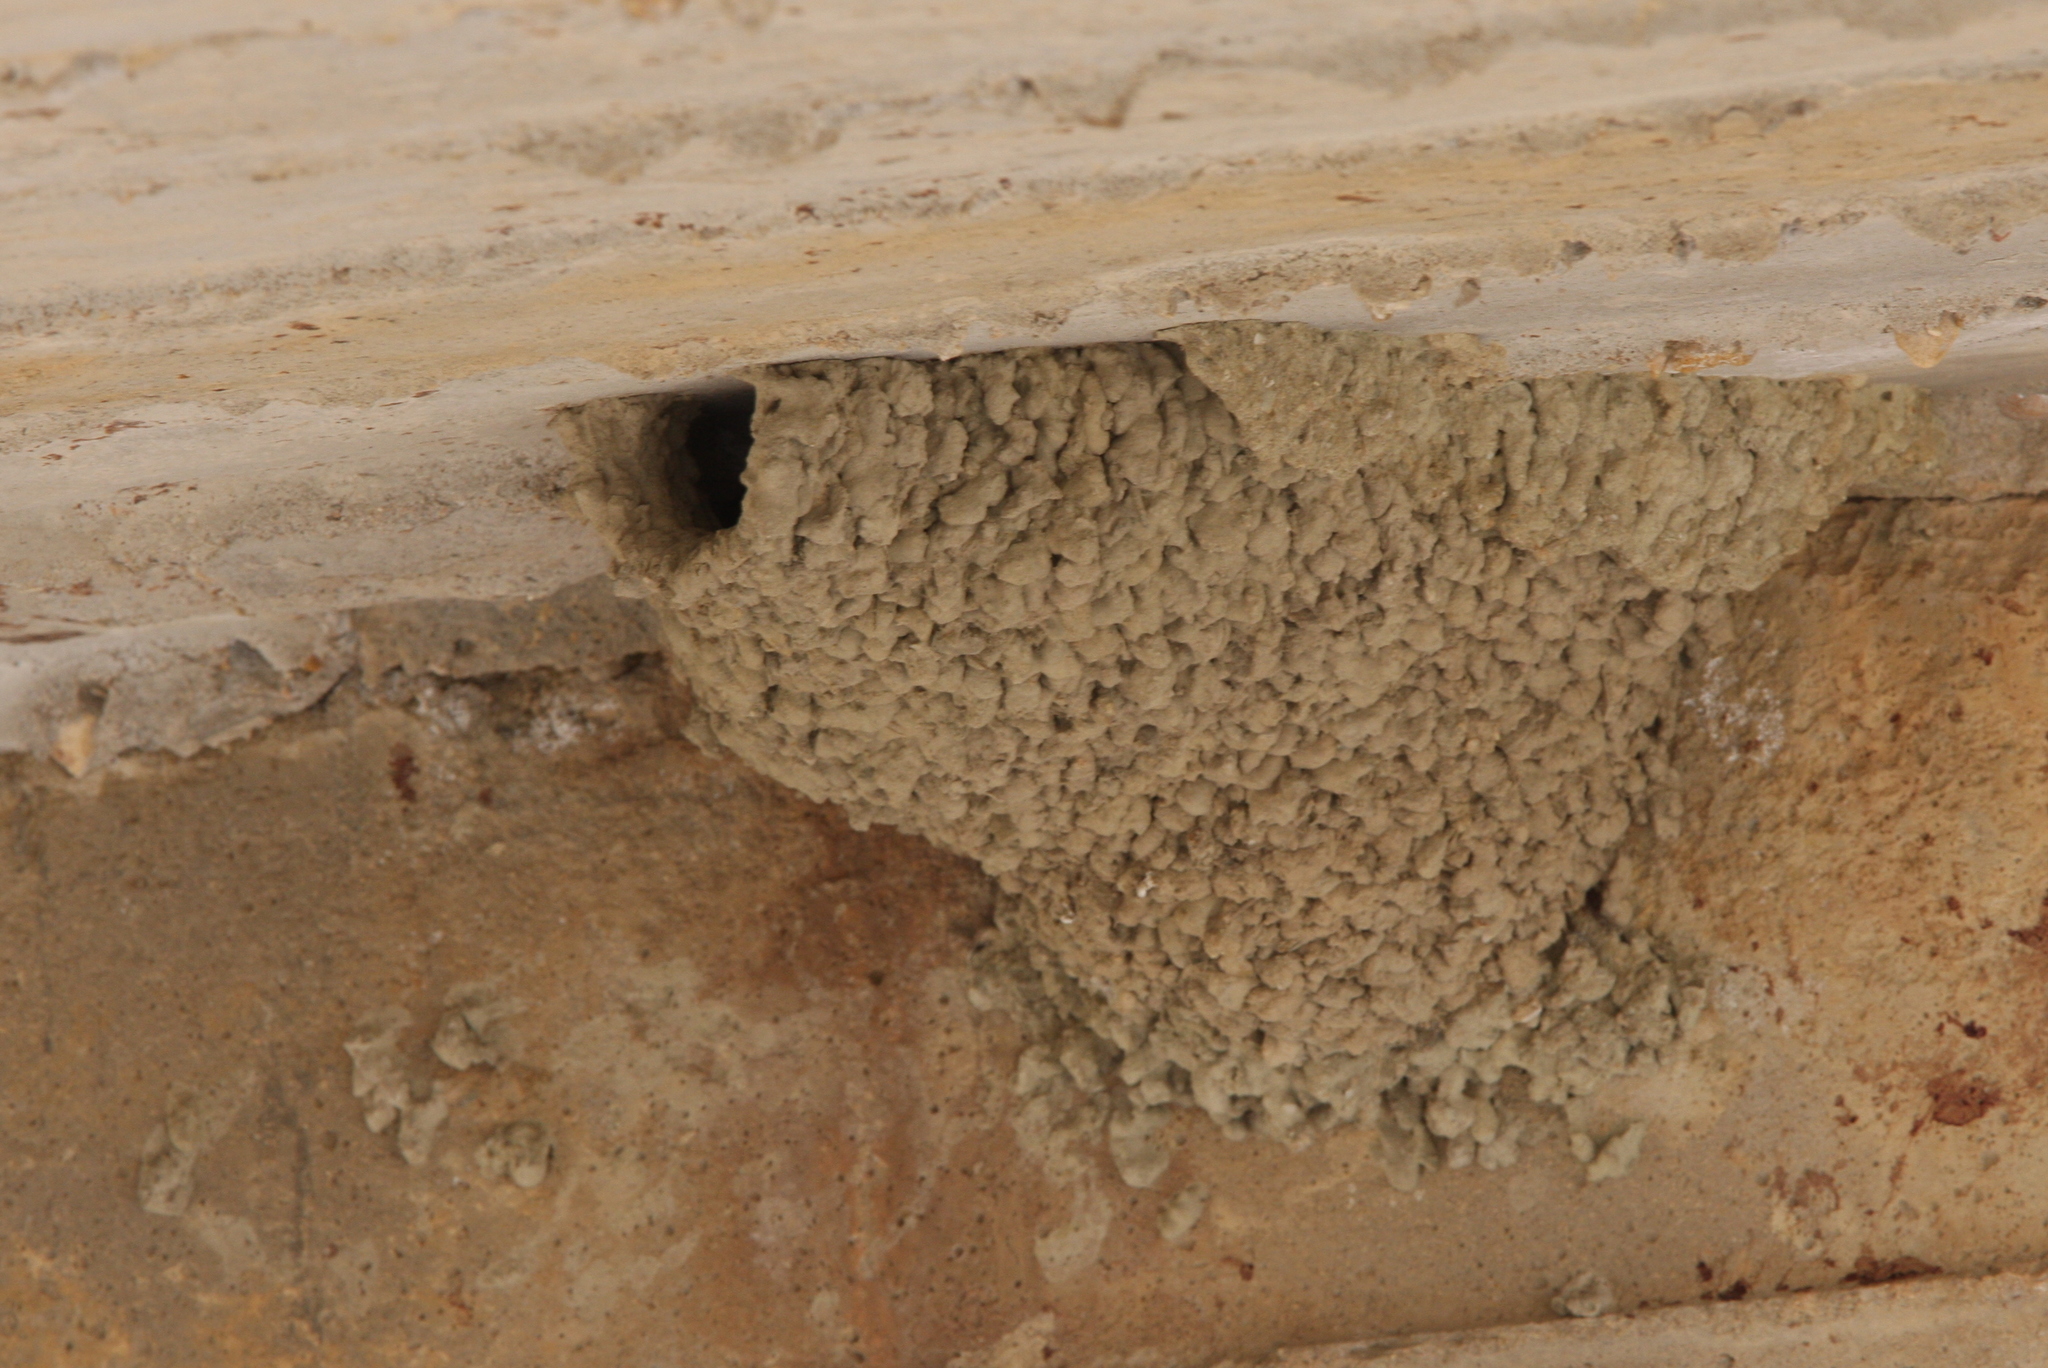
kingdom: Animalia
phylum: Chordata
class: Aves
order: Passeriformes
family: Hirundinidae
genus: Cecropis
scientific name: Cecropis daurica
